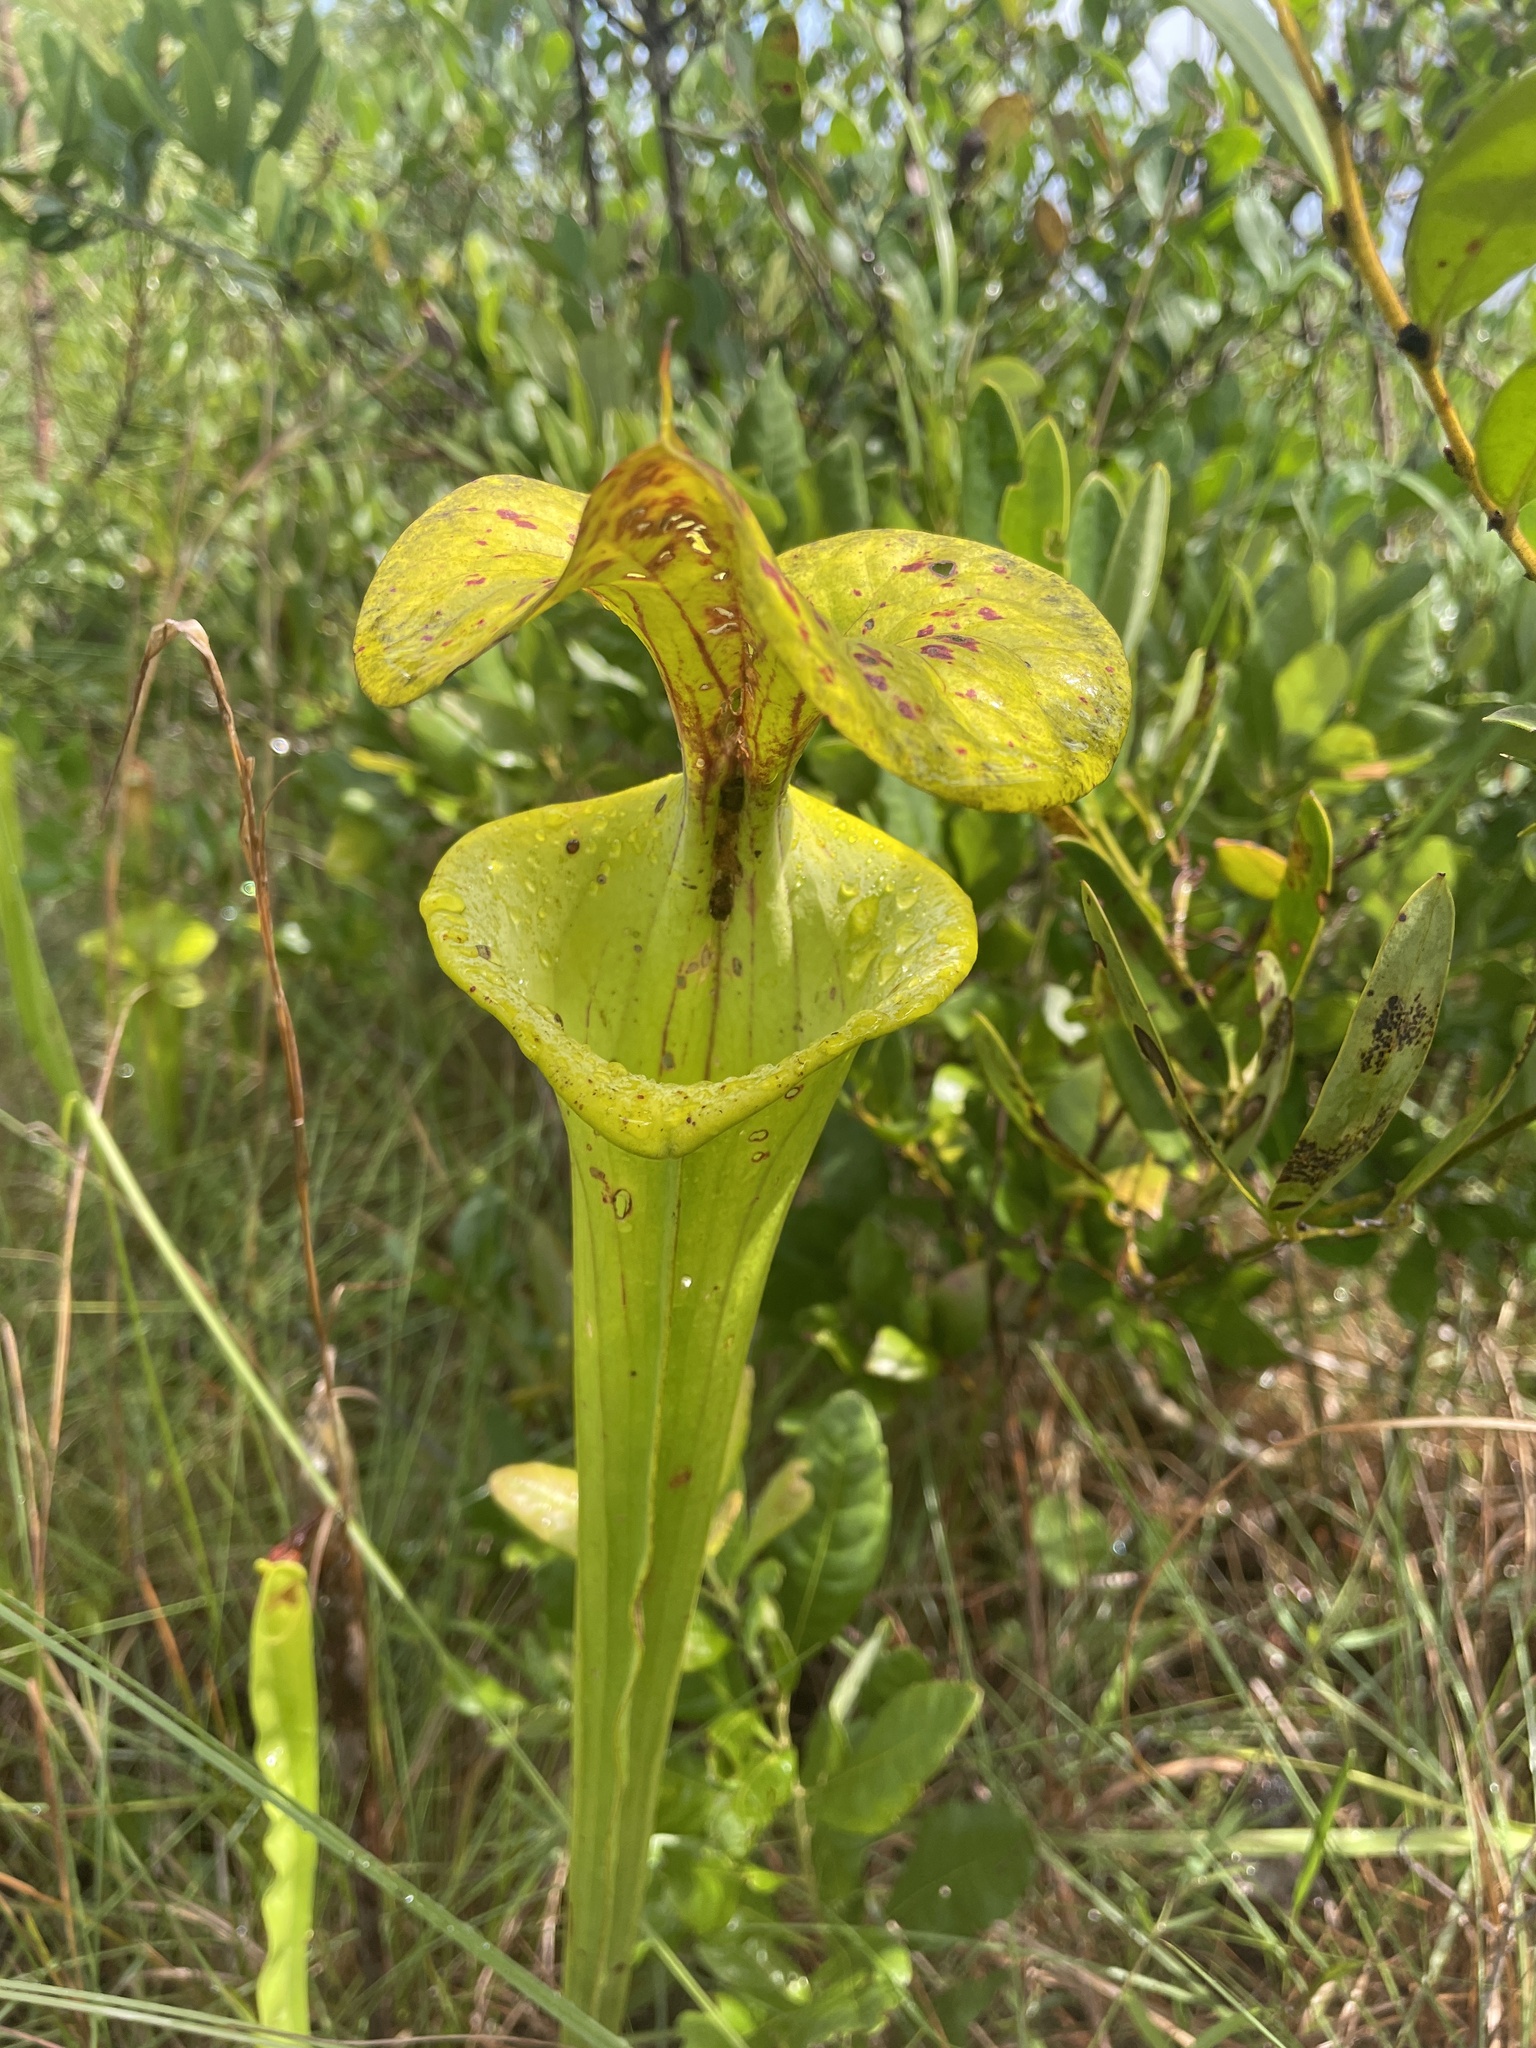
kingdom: Plantae
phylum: Tracheophyta
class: Magnoliopsida
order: Ericales
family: Sarraceniaceae
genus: Sarracenia
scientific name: Sarracenia flava
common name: Trumpets
